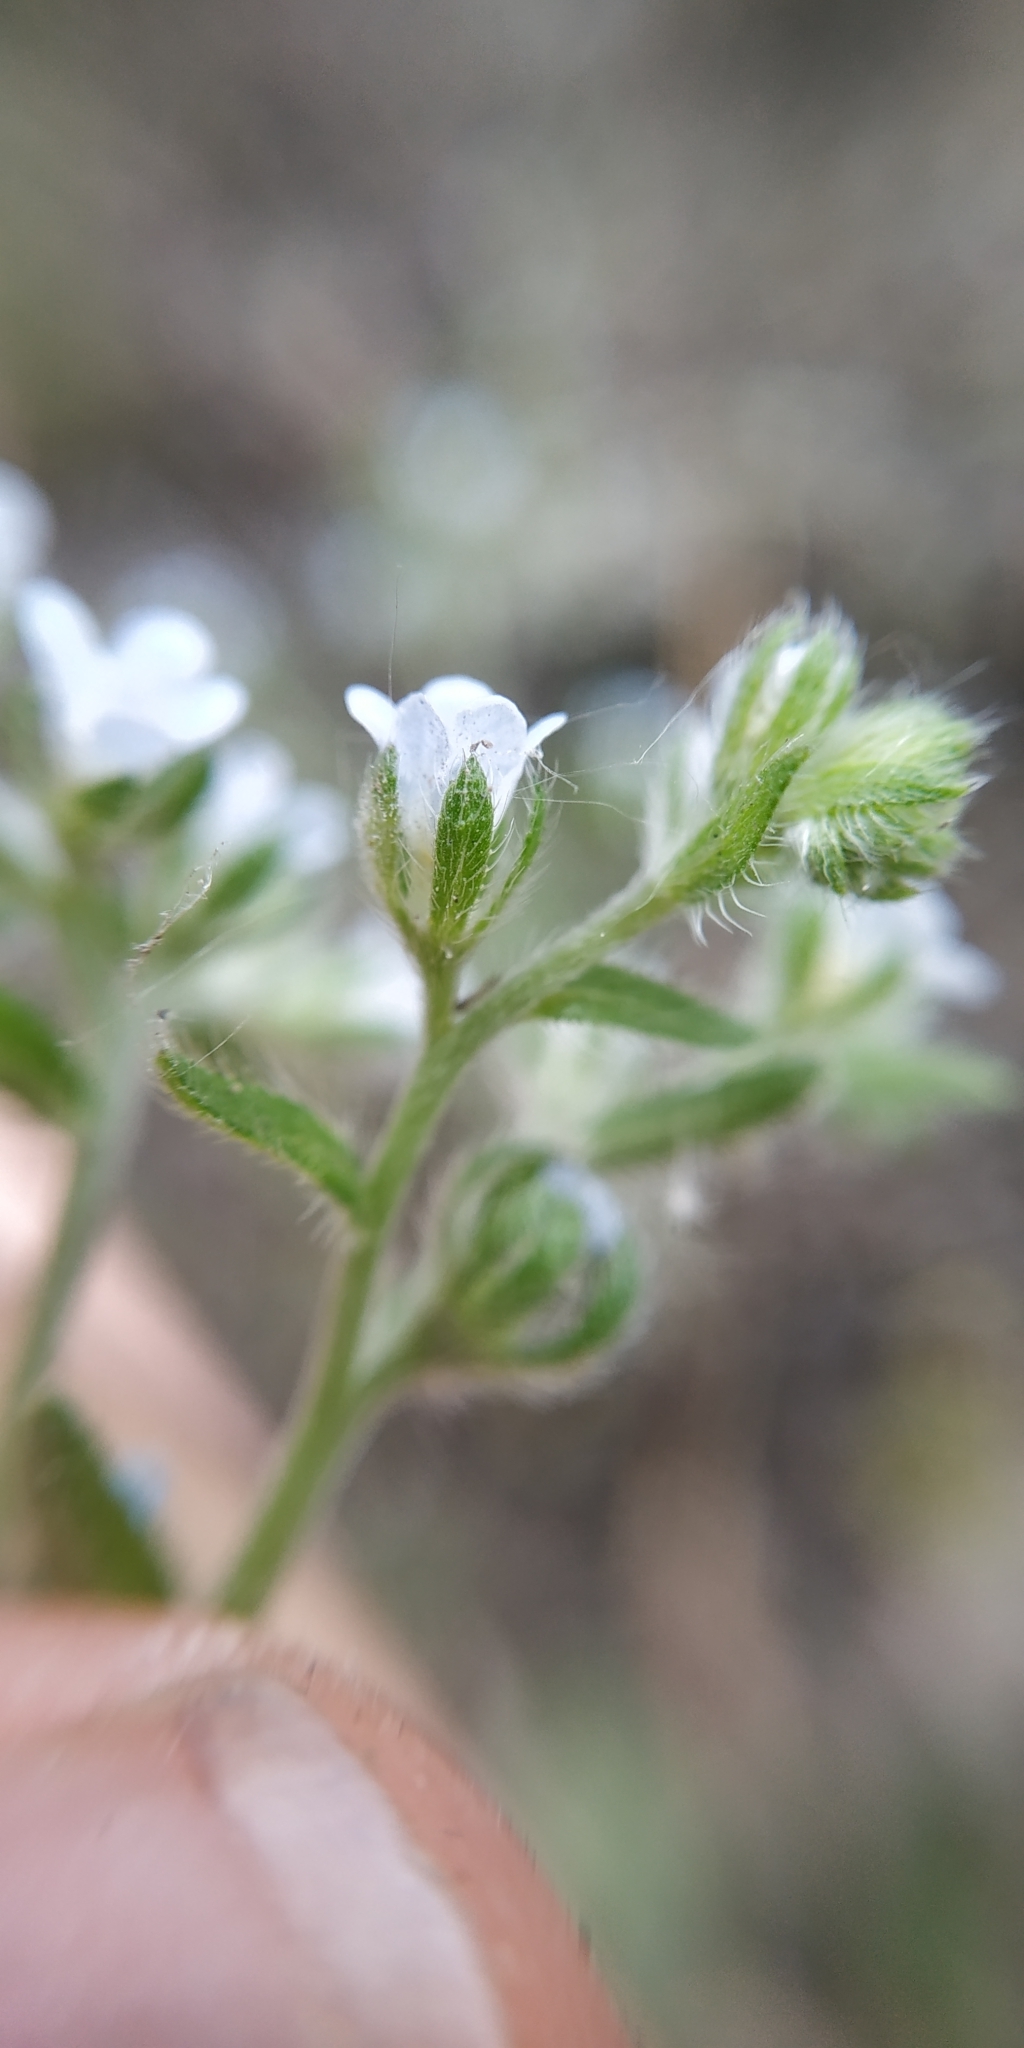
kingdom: Plantae
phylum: Tracheophyta
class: Magnoliopsida
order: Boraginales
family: Boraginaceae
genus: Lappula
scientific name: Lappula squarrosa
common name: European stickseed
